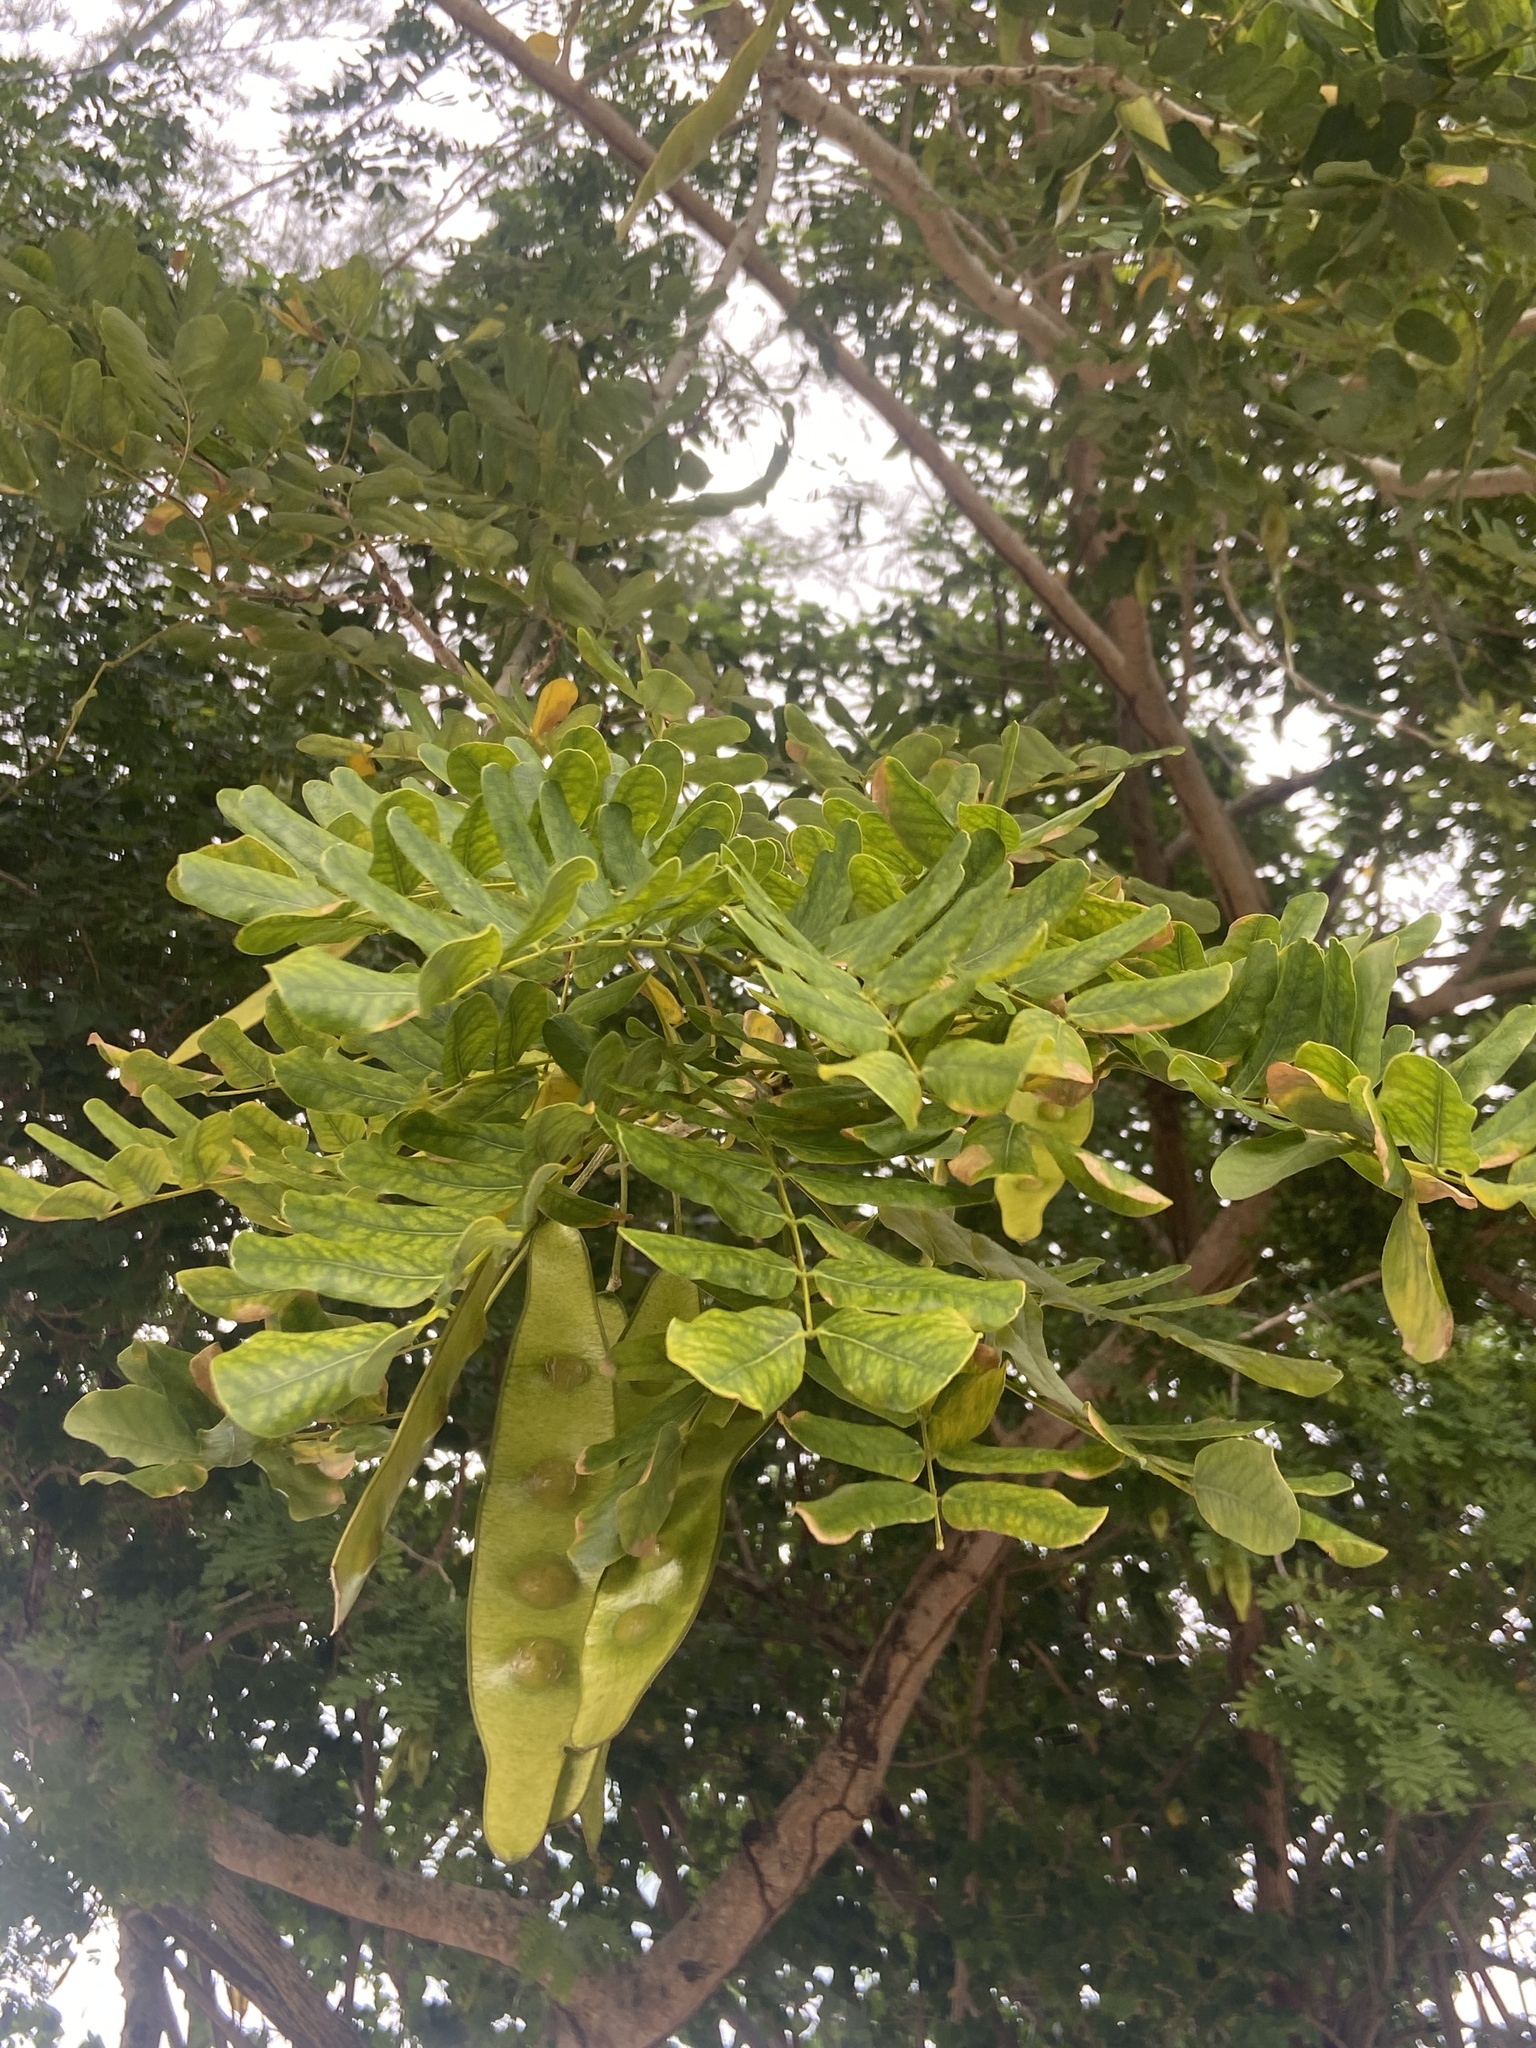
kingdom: Plantae
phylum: Tracheophyta
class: Magnoliopsida
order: Fabales
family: Fabaceae
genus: Albizia
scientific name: Albizia lebbeck
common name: Woman's tongue
